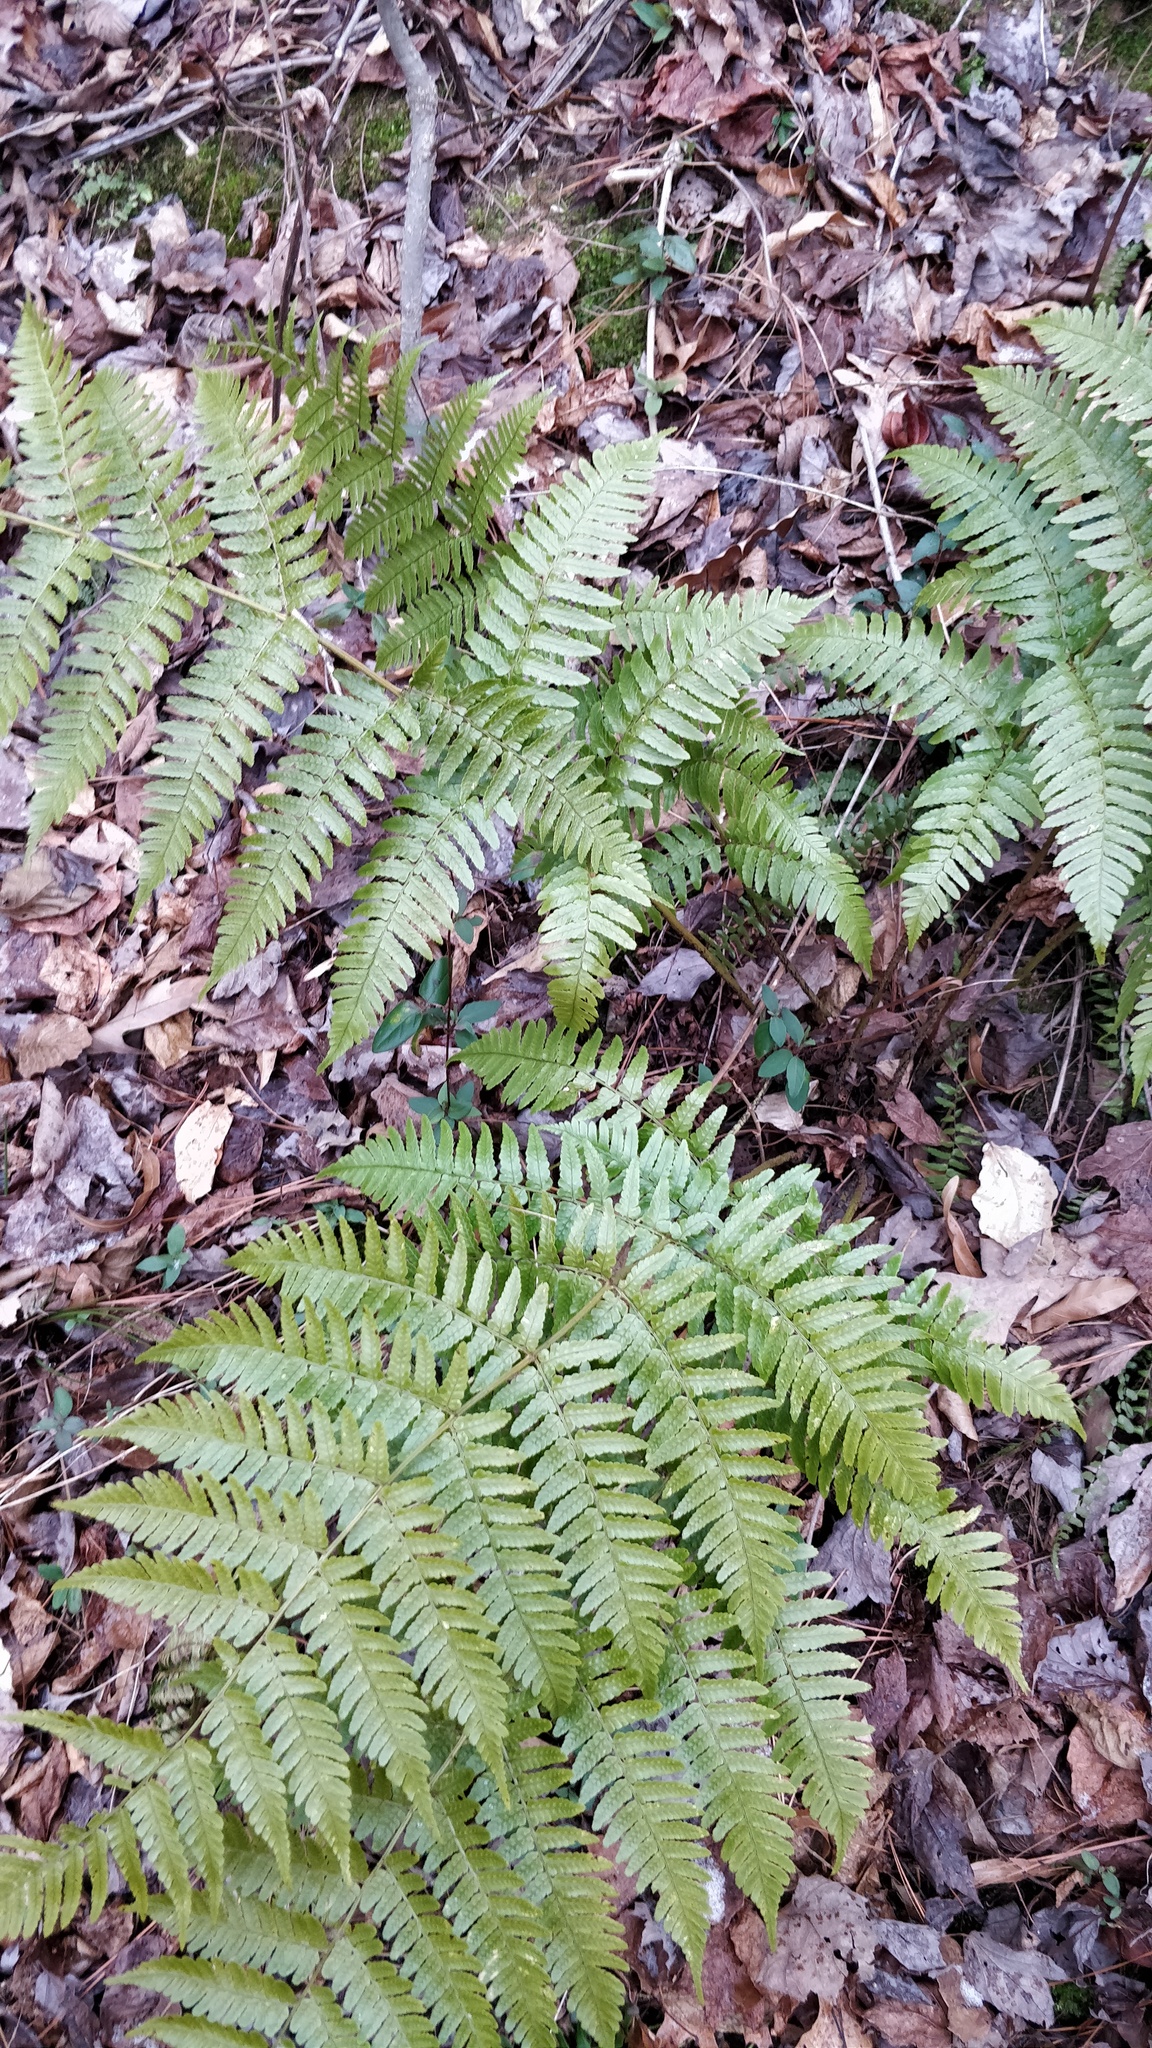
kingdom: Plantae
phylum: Tracheophyta
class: Polypodiopsida
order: Polypodiales
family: Dryopteridaceae
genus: Dryopteris
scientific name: Dryopteris erythrosora
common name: Autumn fern
